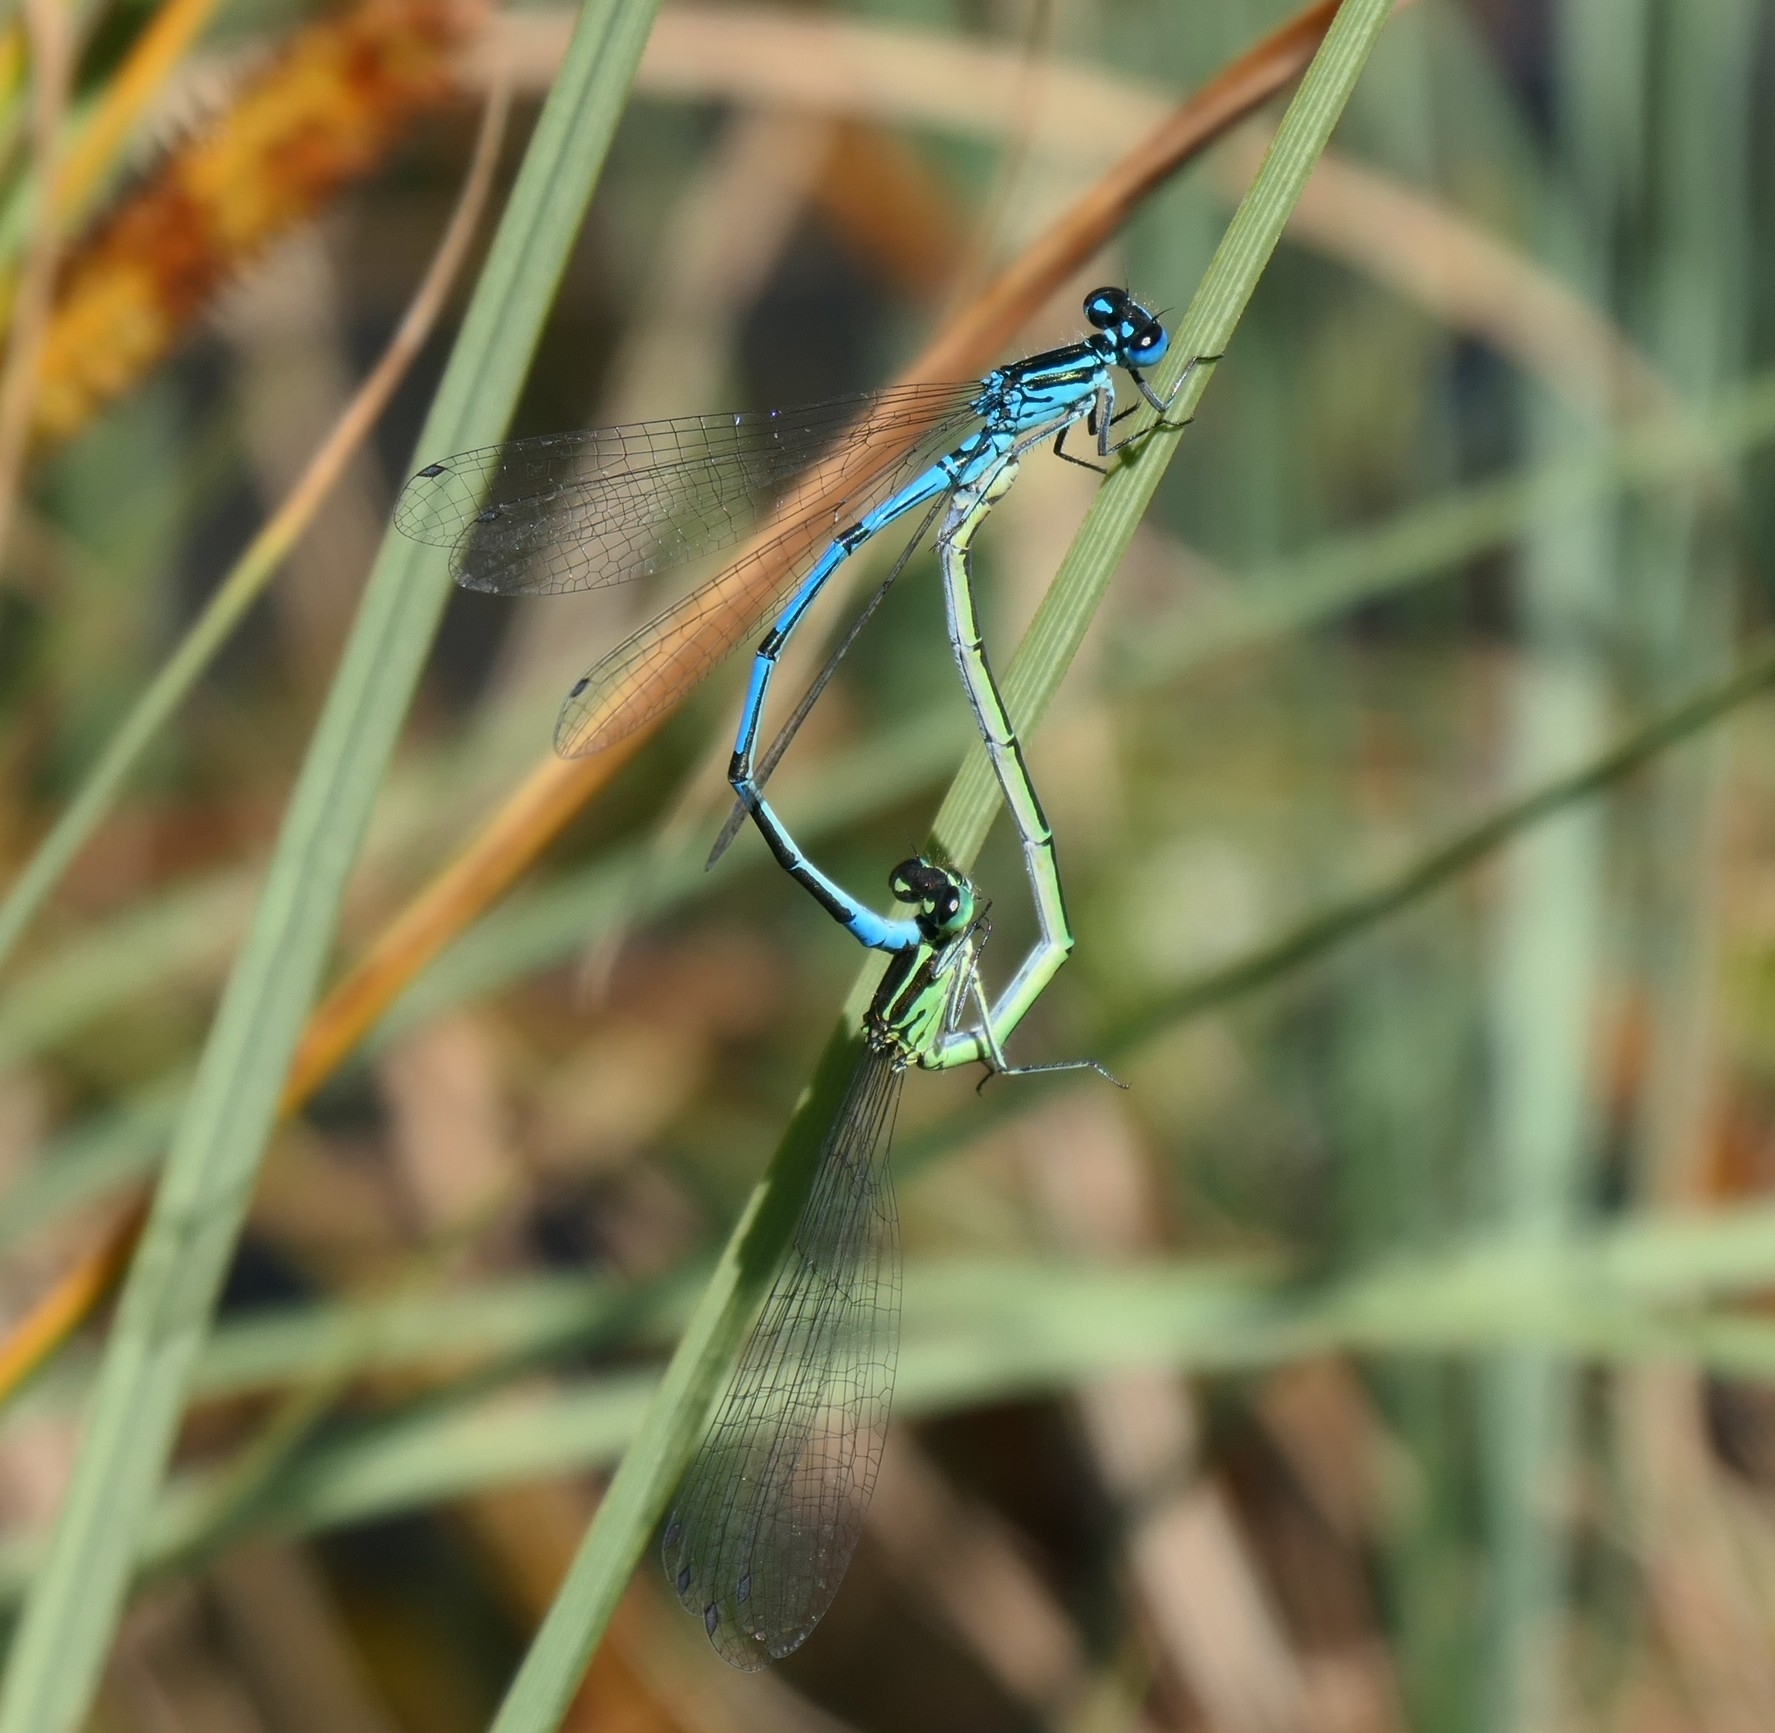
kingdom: Animalia
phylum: Arthropoda
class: Insecta
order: Odonata
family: Coenagrionidae
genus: Coenagrion
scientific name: Coenagrion puella
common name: Azure damselfly
